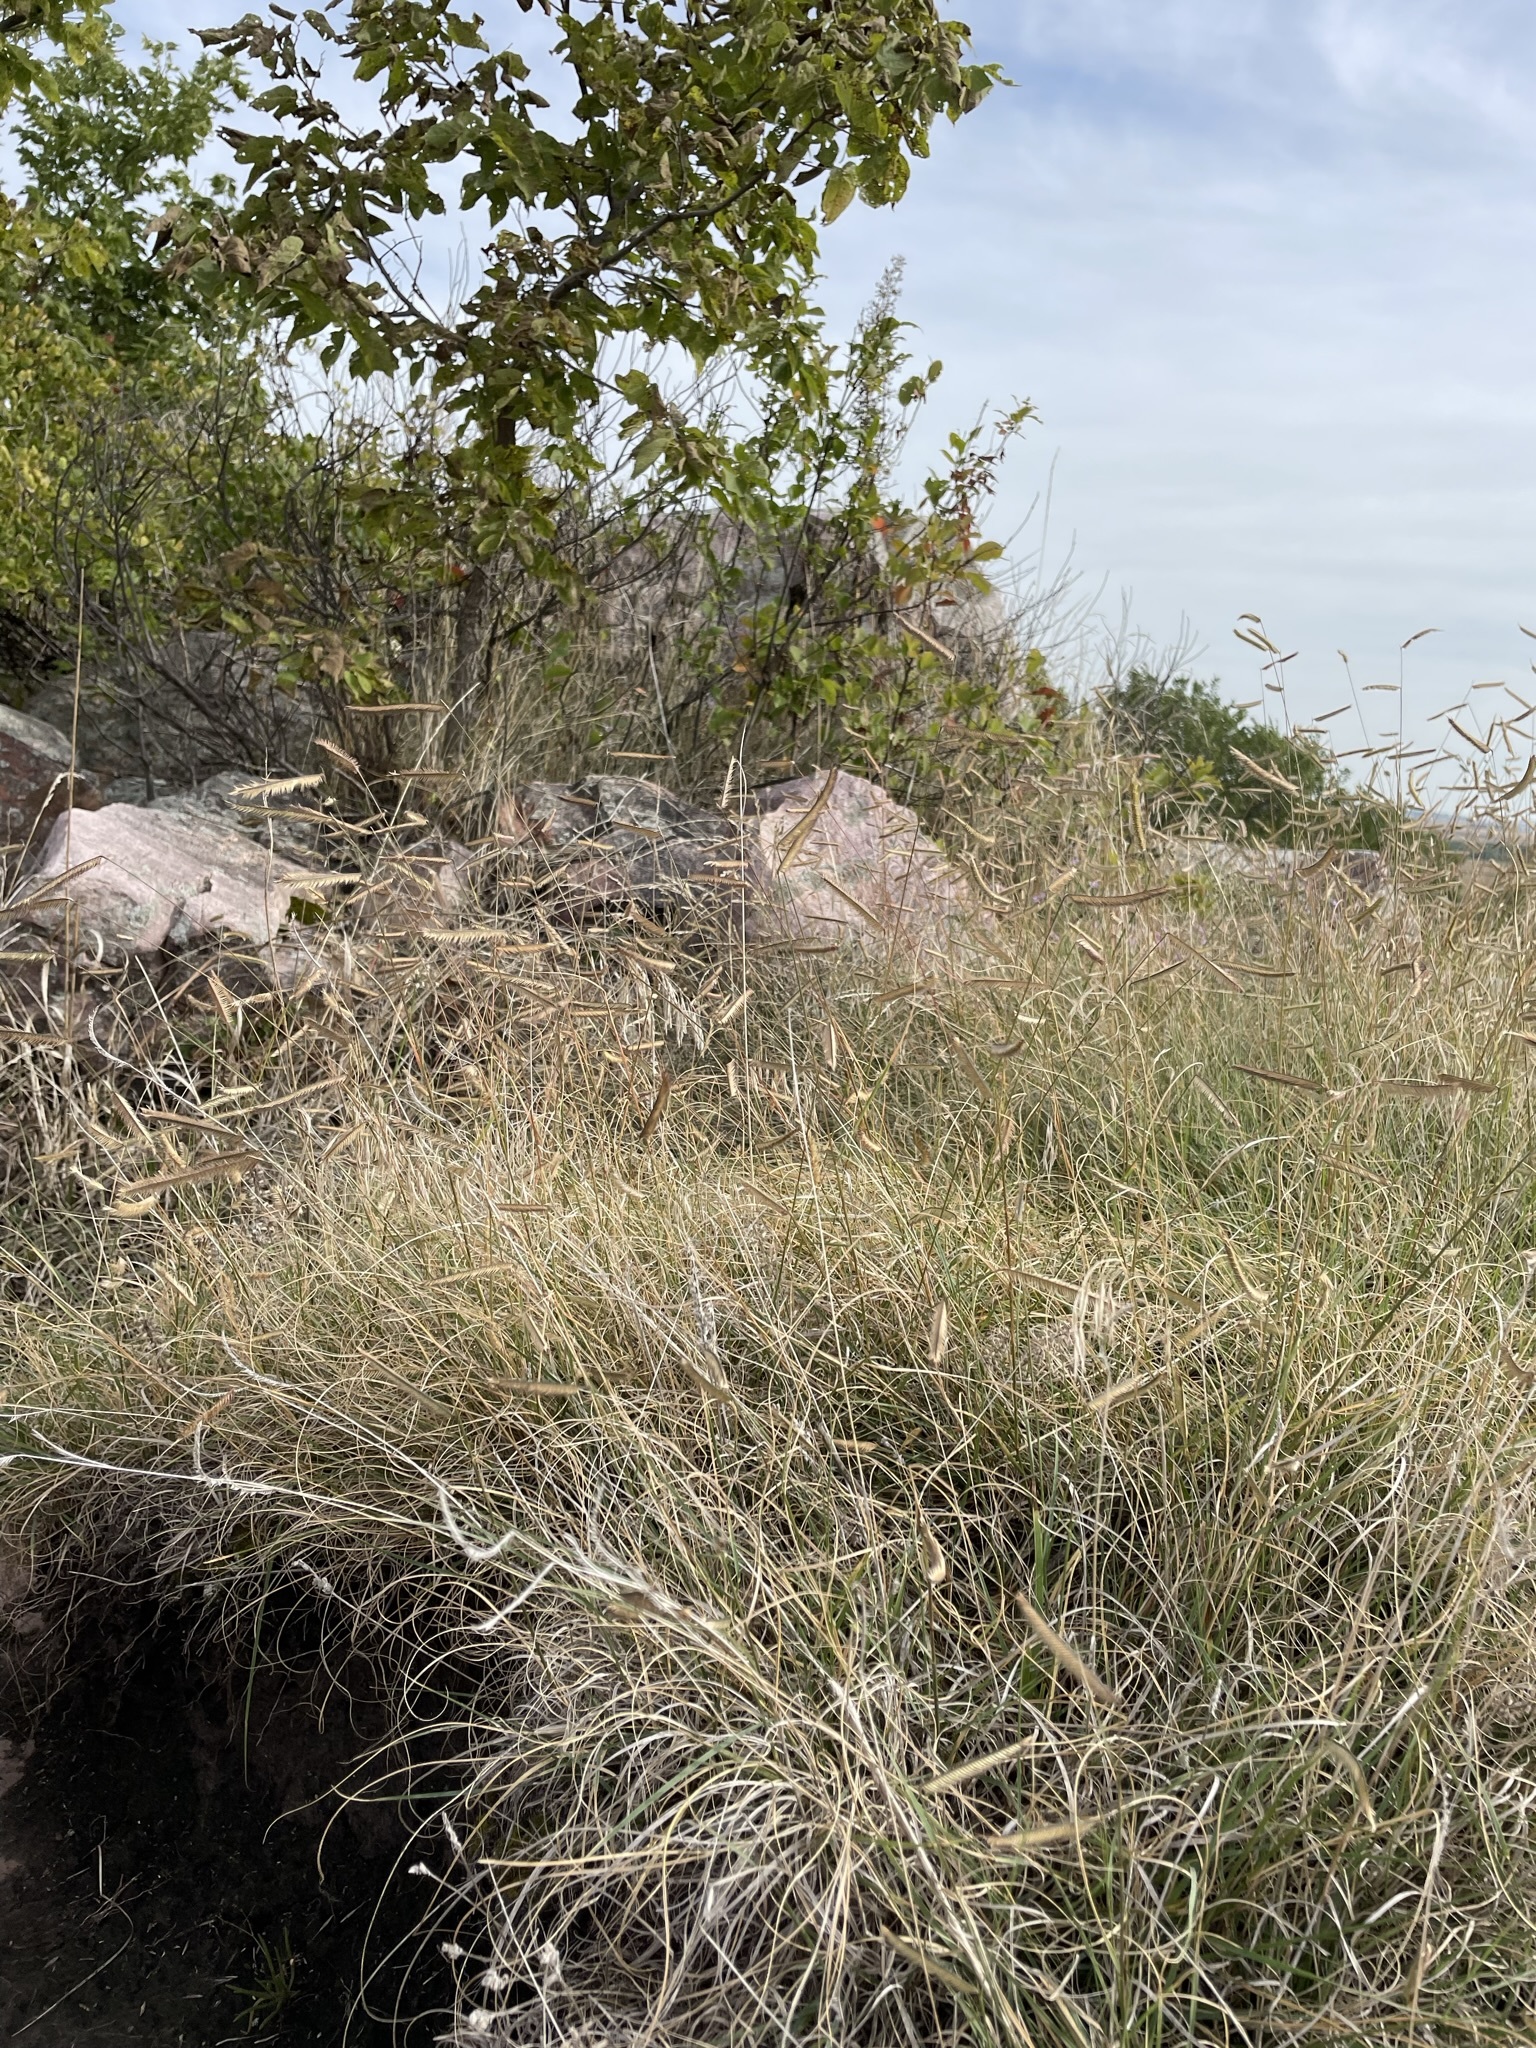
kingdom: Plantae
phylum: Tracheophyta
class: Liliopsida
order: Poales
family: Poaceae
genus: Bouteloua
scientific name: Bouteloua gracilis
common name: Blue grama
